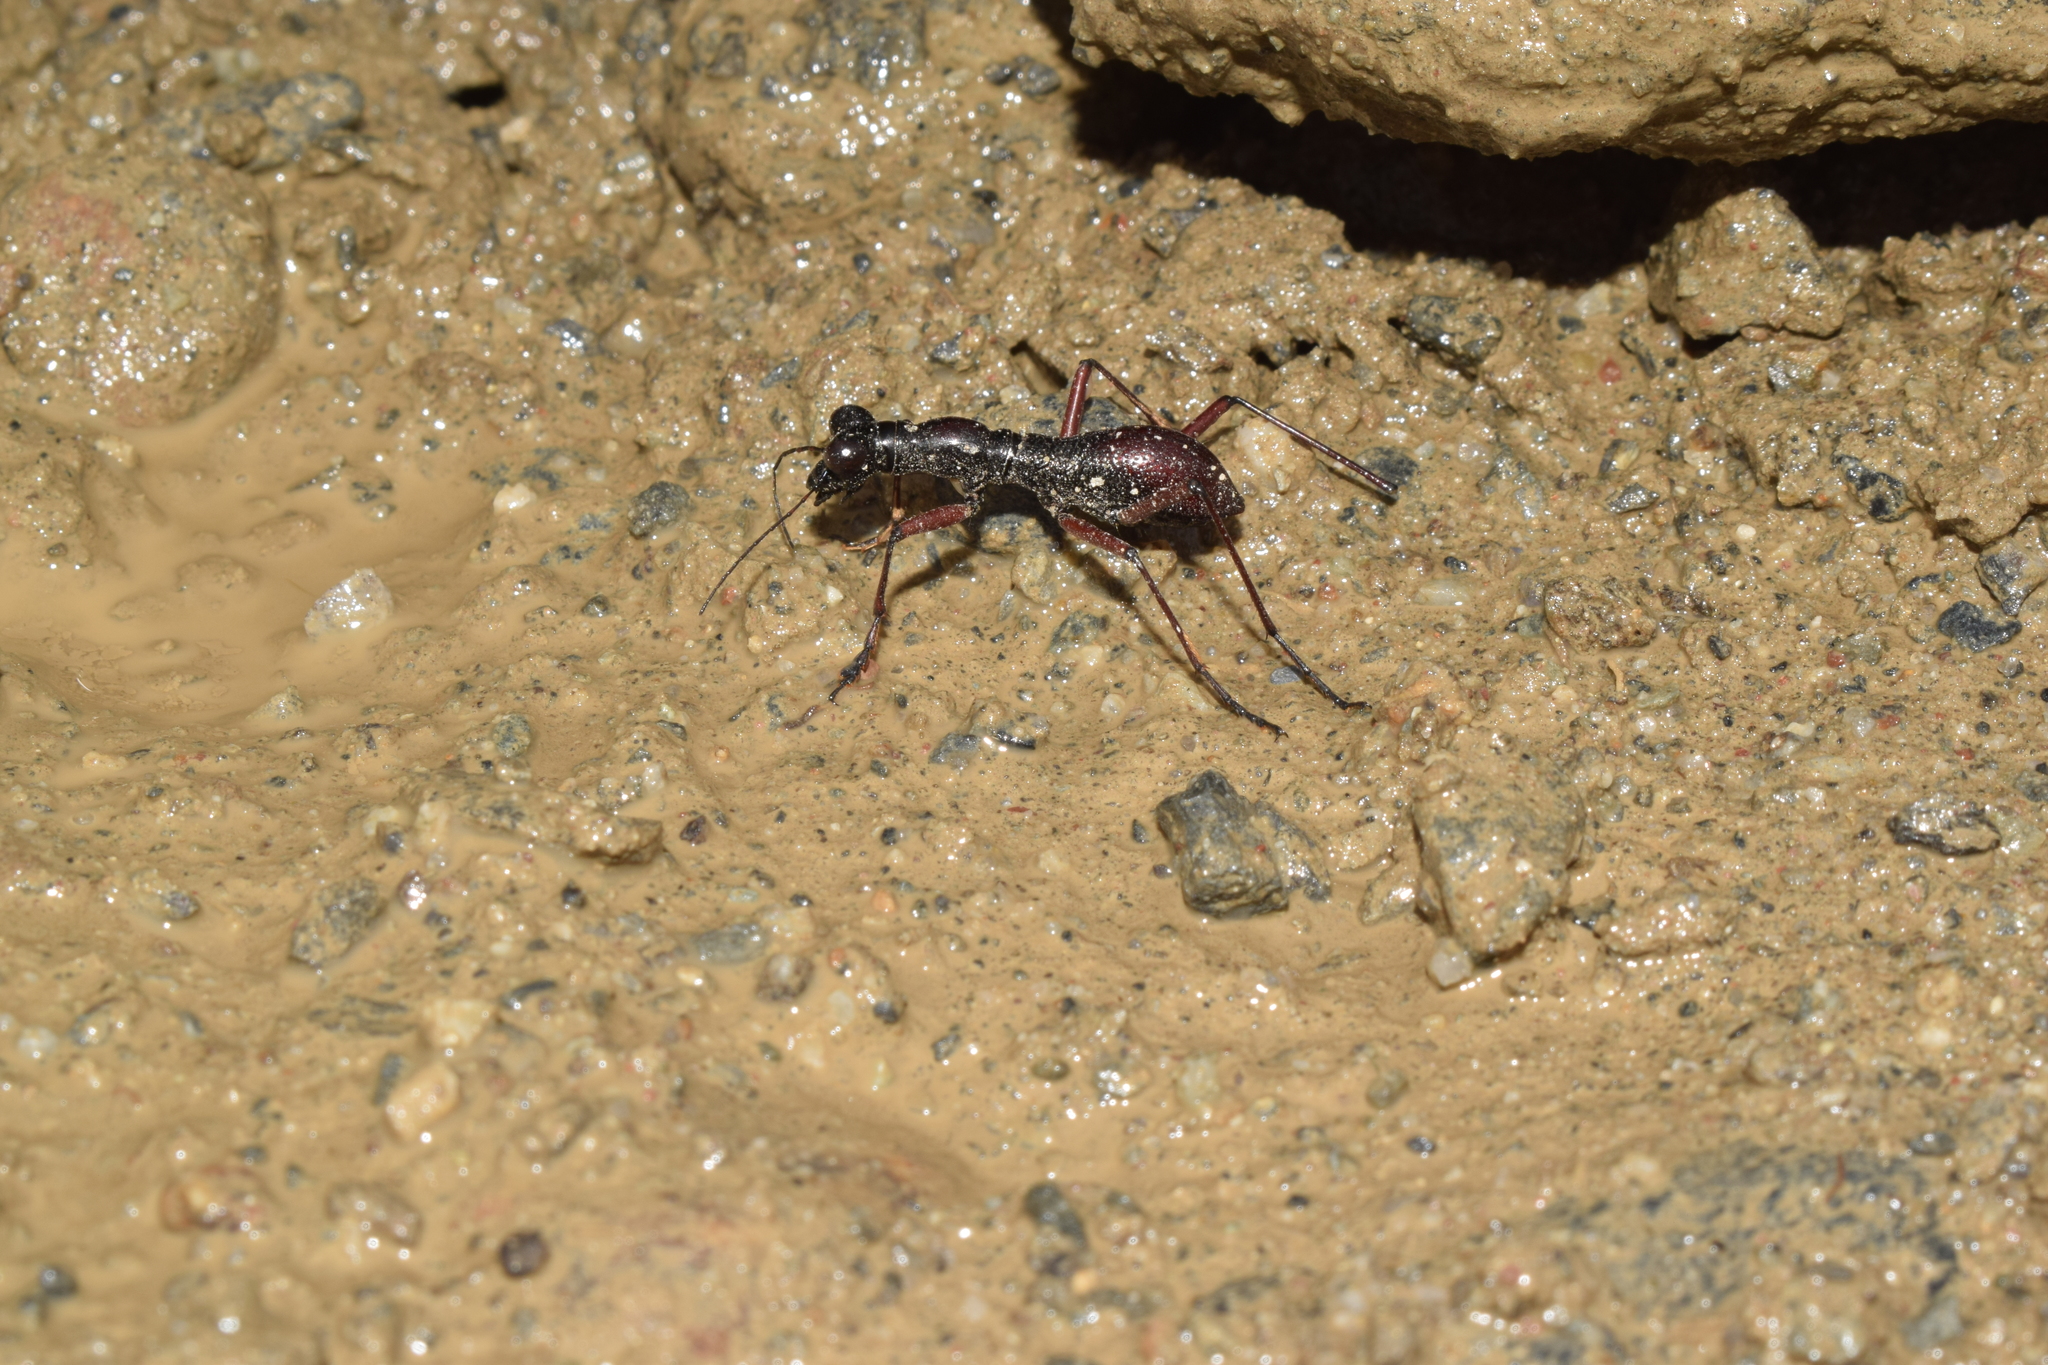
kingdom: Animalia
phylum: Arthropoda
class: Insecta
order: Coleoptera
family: Carabidae
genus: Tricondyla
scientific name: Tricondyla macrodera
